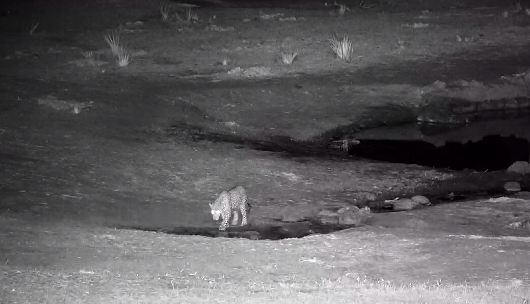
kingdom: Animalia
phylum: Chordata
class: Mammalia
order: Carnivora
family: Felidae
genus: Panthera
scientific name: Panthera pardus
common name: Leopard
